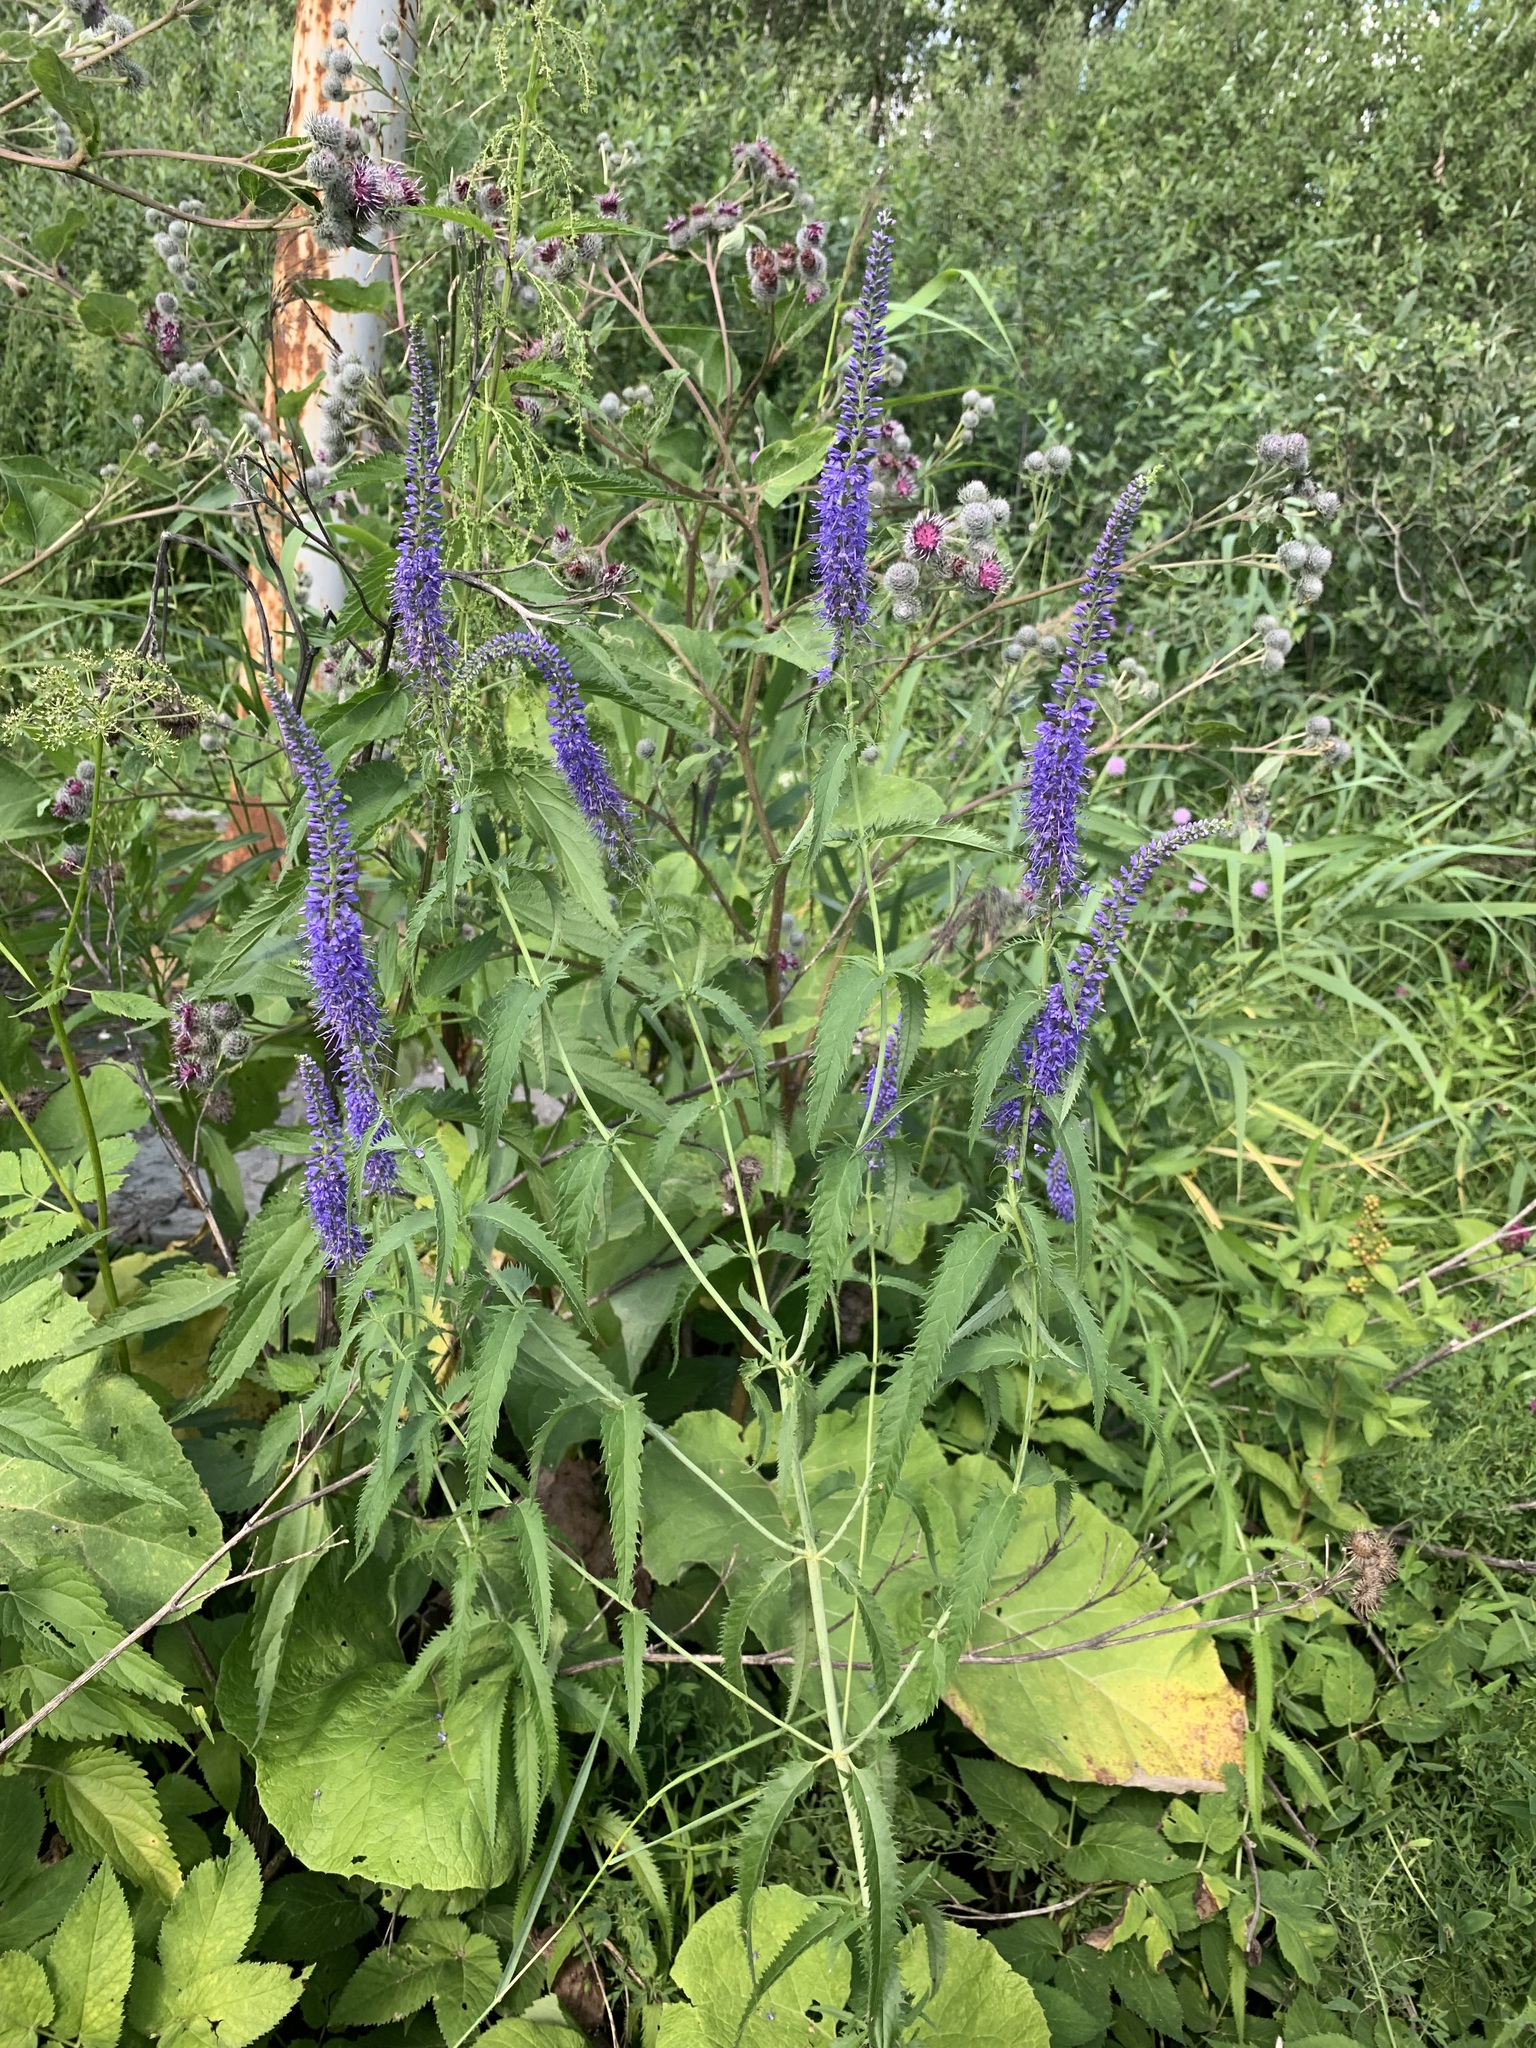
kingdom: Plantae
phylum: Tracheophyta
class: Magnoliopsida
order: Lamiales
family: Plantaginaceae
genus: Veronica
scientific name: Veronica longifolia
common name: Garden speedwell
